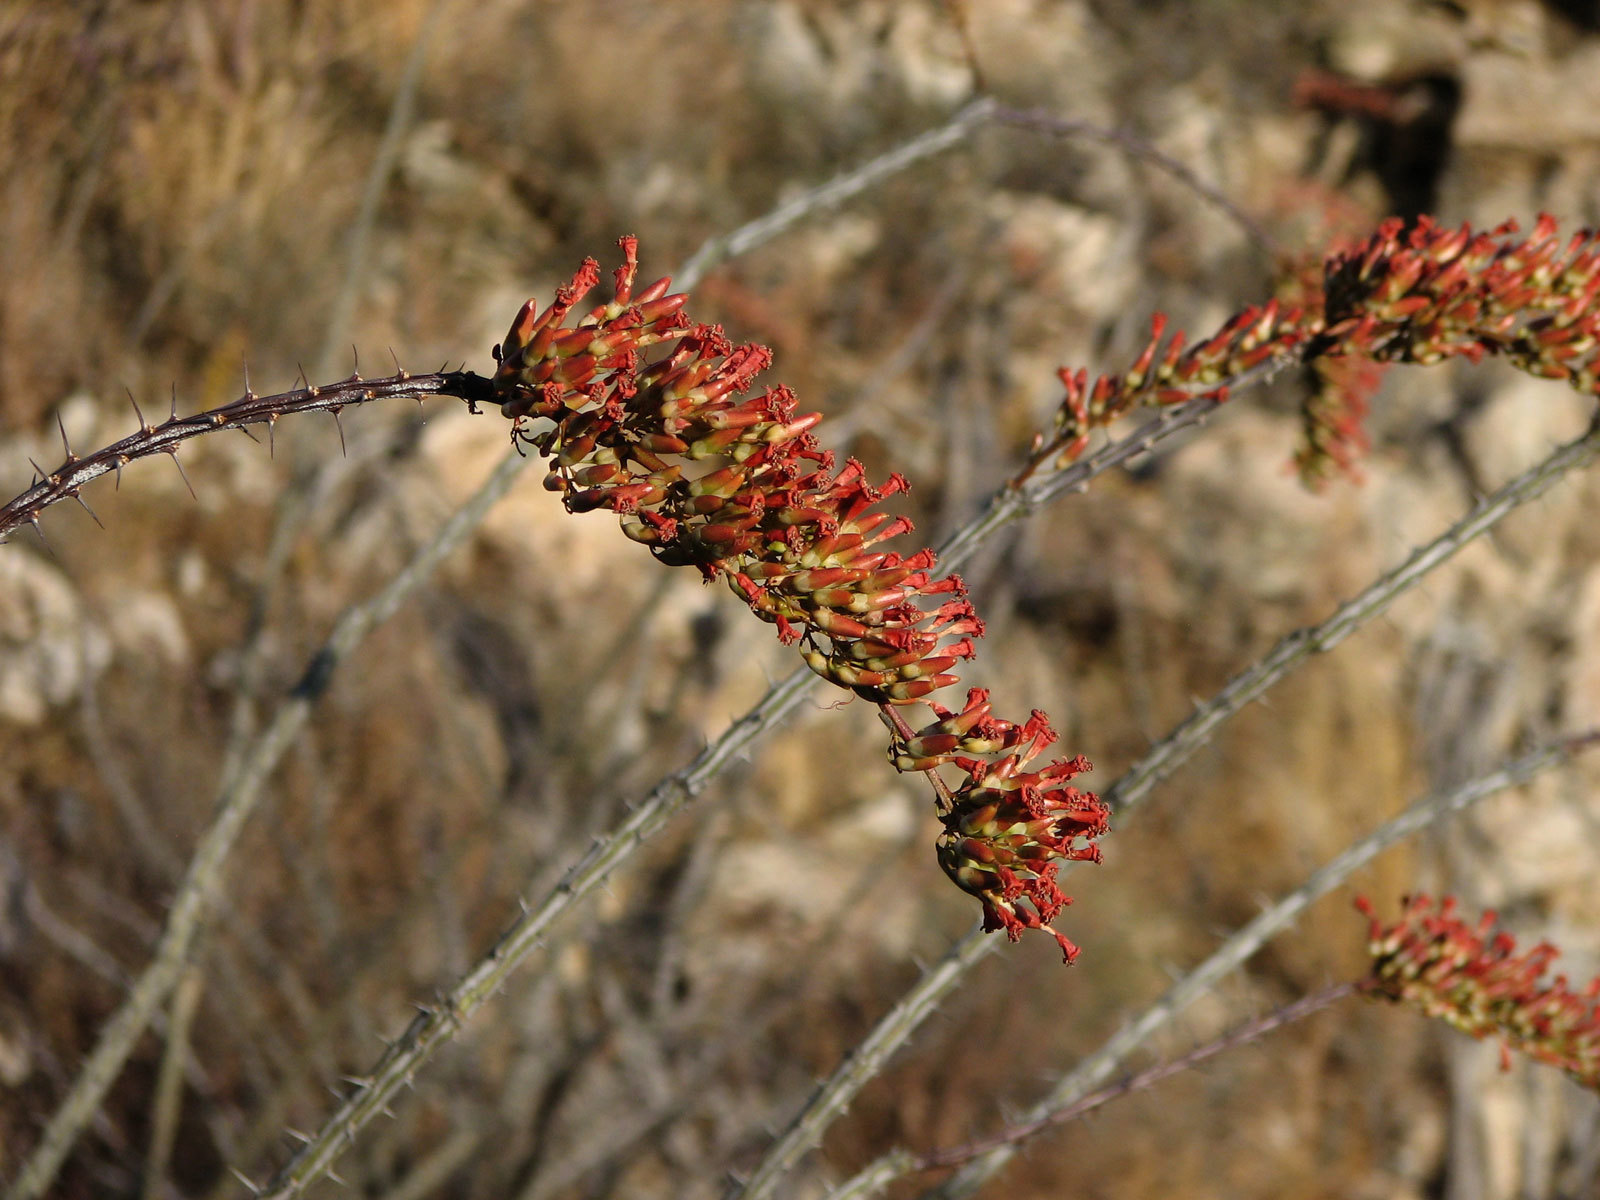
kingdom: Plantae
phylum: Tracheophyta
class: Magnoliopsida
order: Ericales
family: Fouquieriaceae
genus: Fouquieria
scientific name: Fouquieria splendens
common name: Vine-cactus
